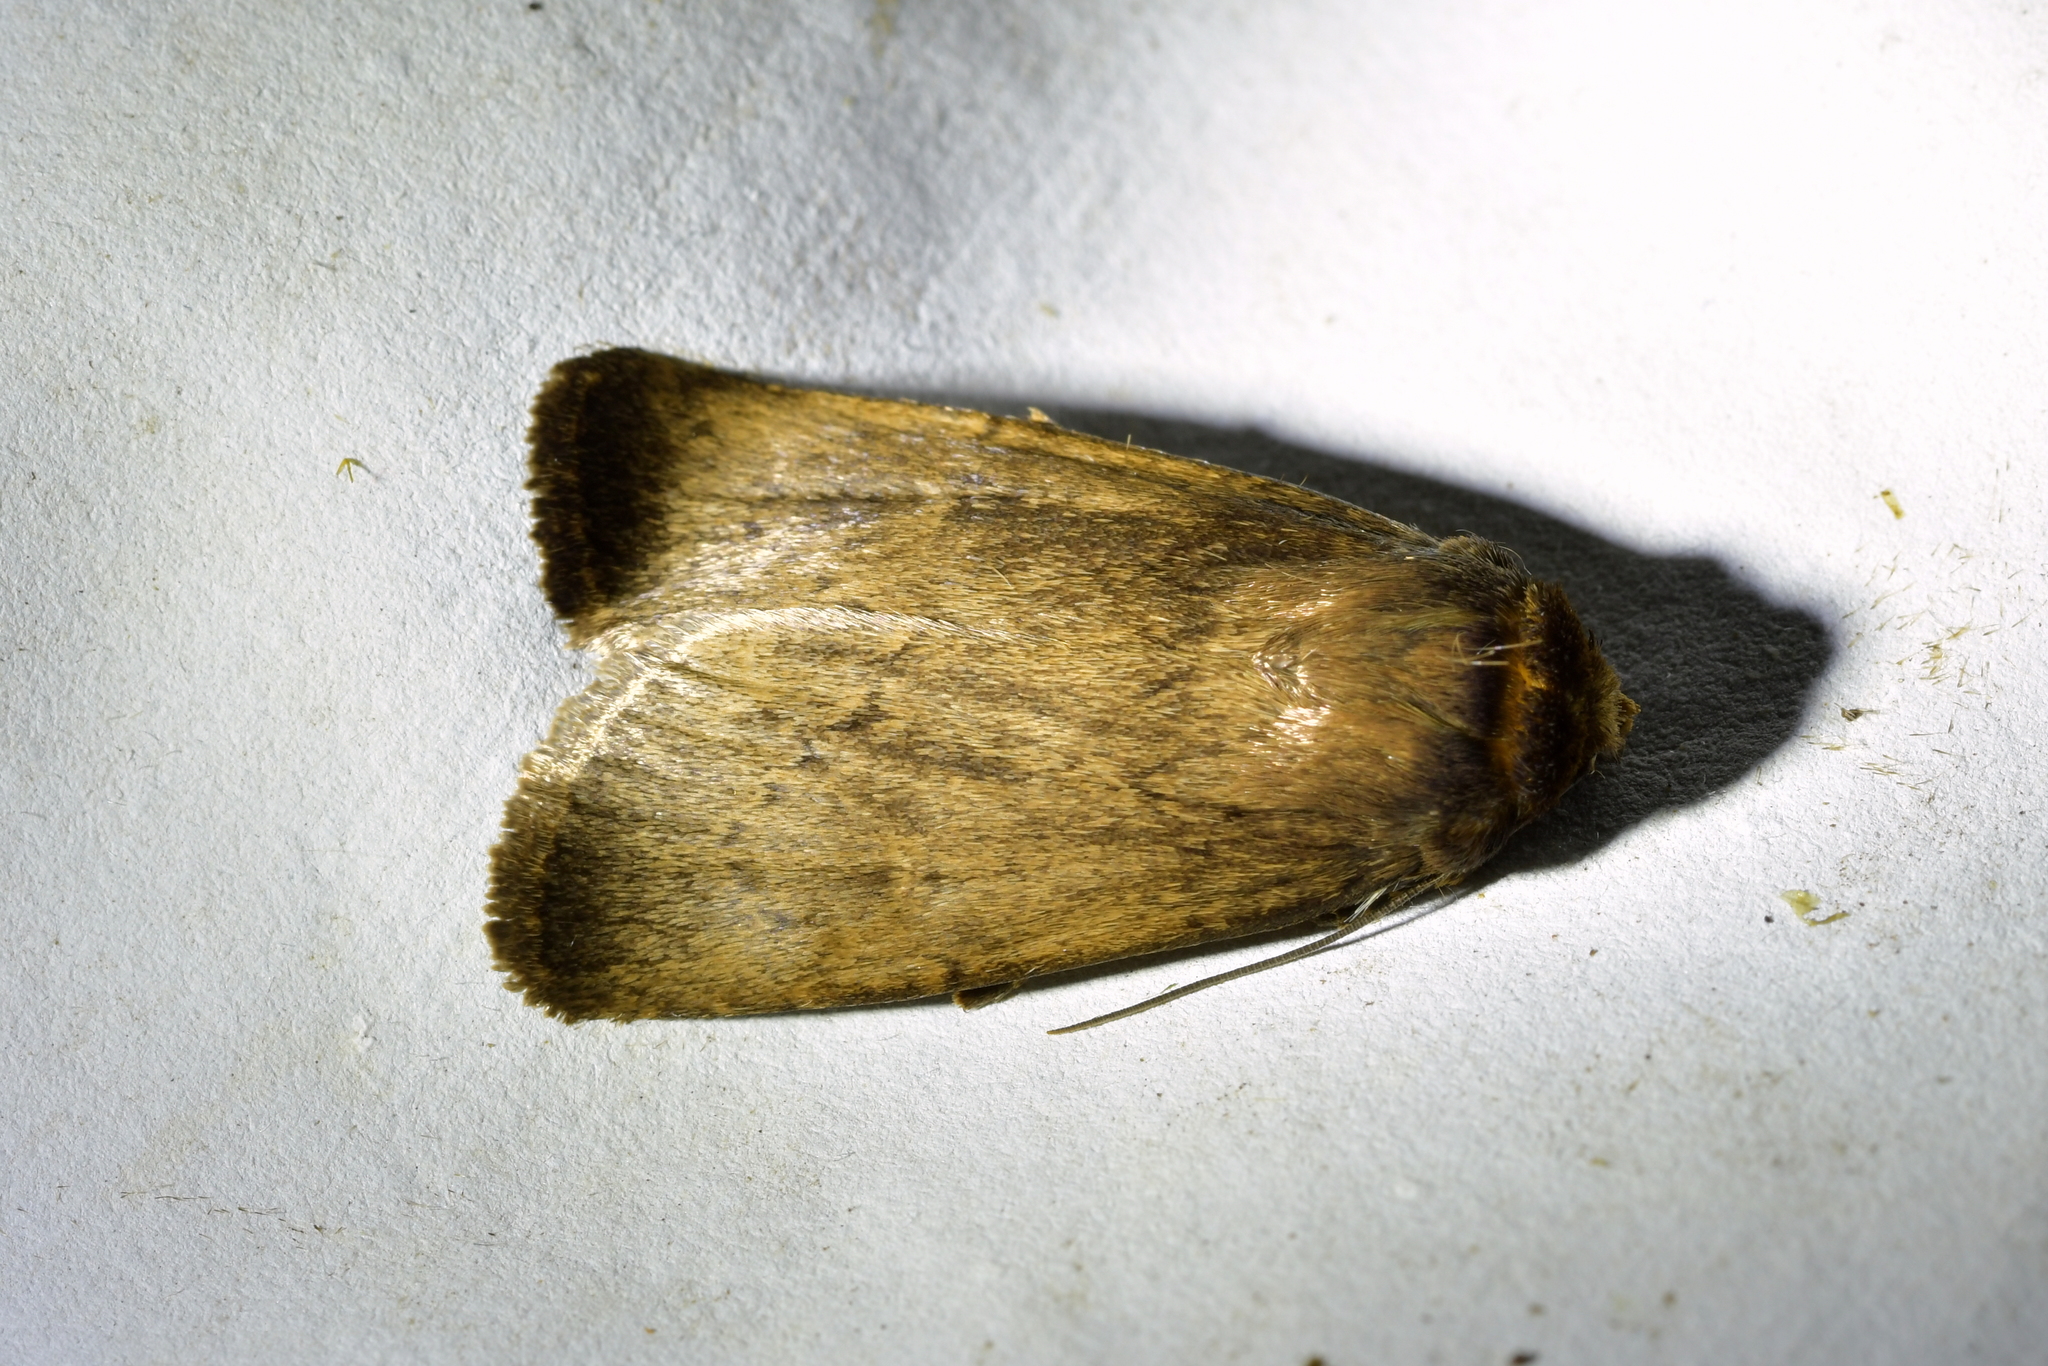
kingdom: Animalia
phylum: Arthropoda
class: Insecta
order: Lepidoptera
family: Noctuidae
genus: Bityla
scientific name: Bityla defigurata
